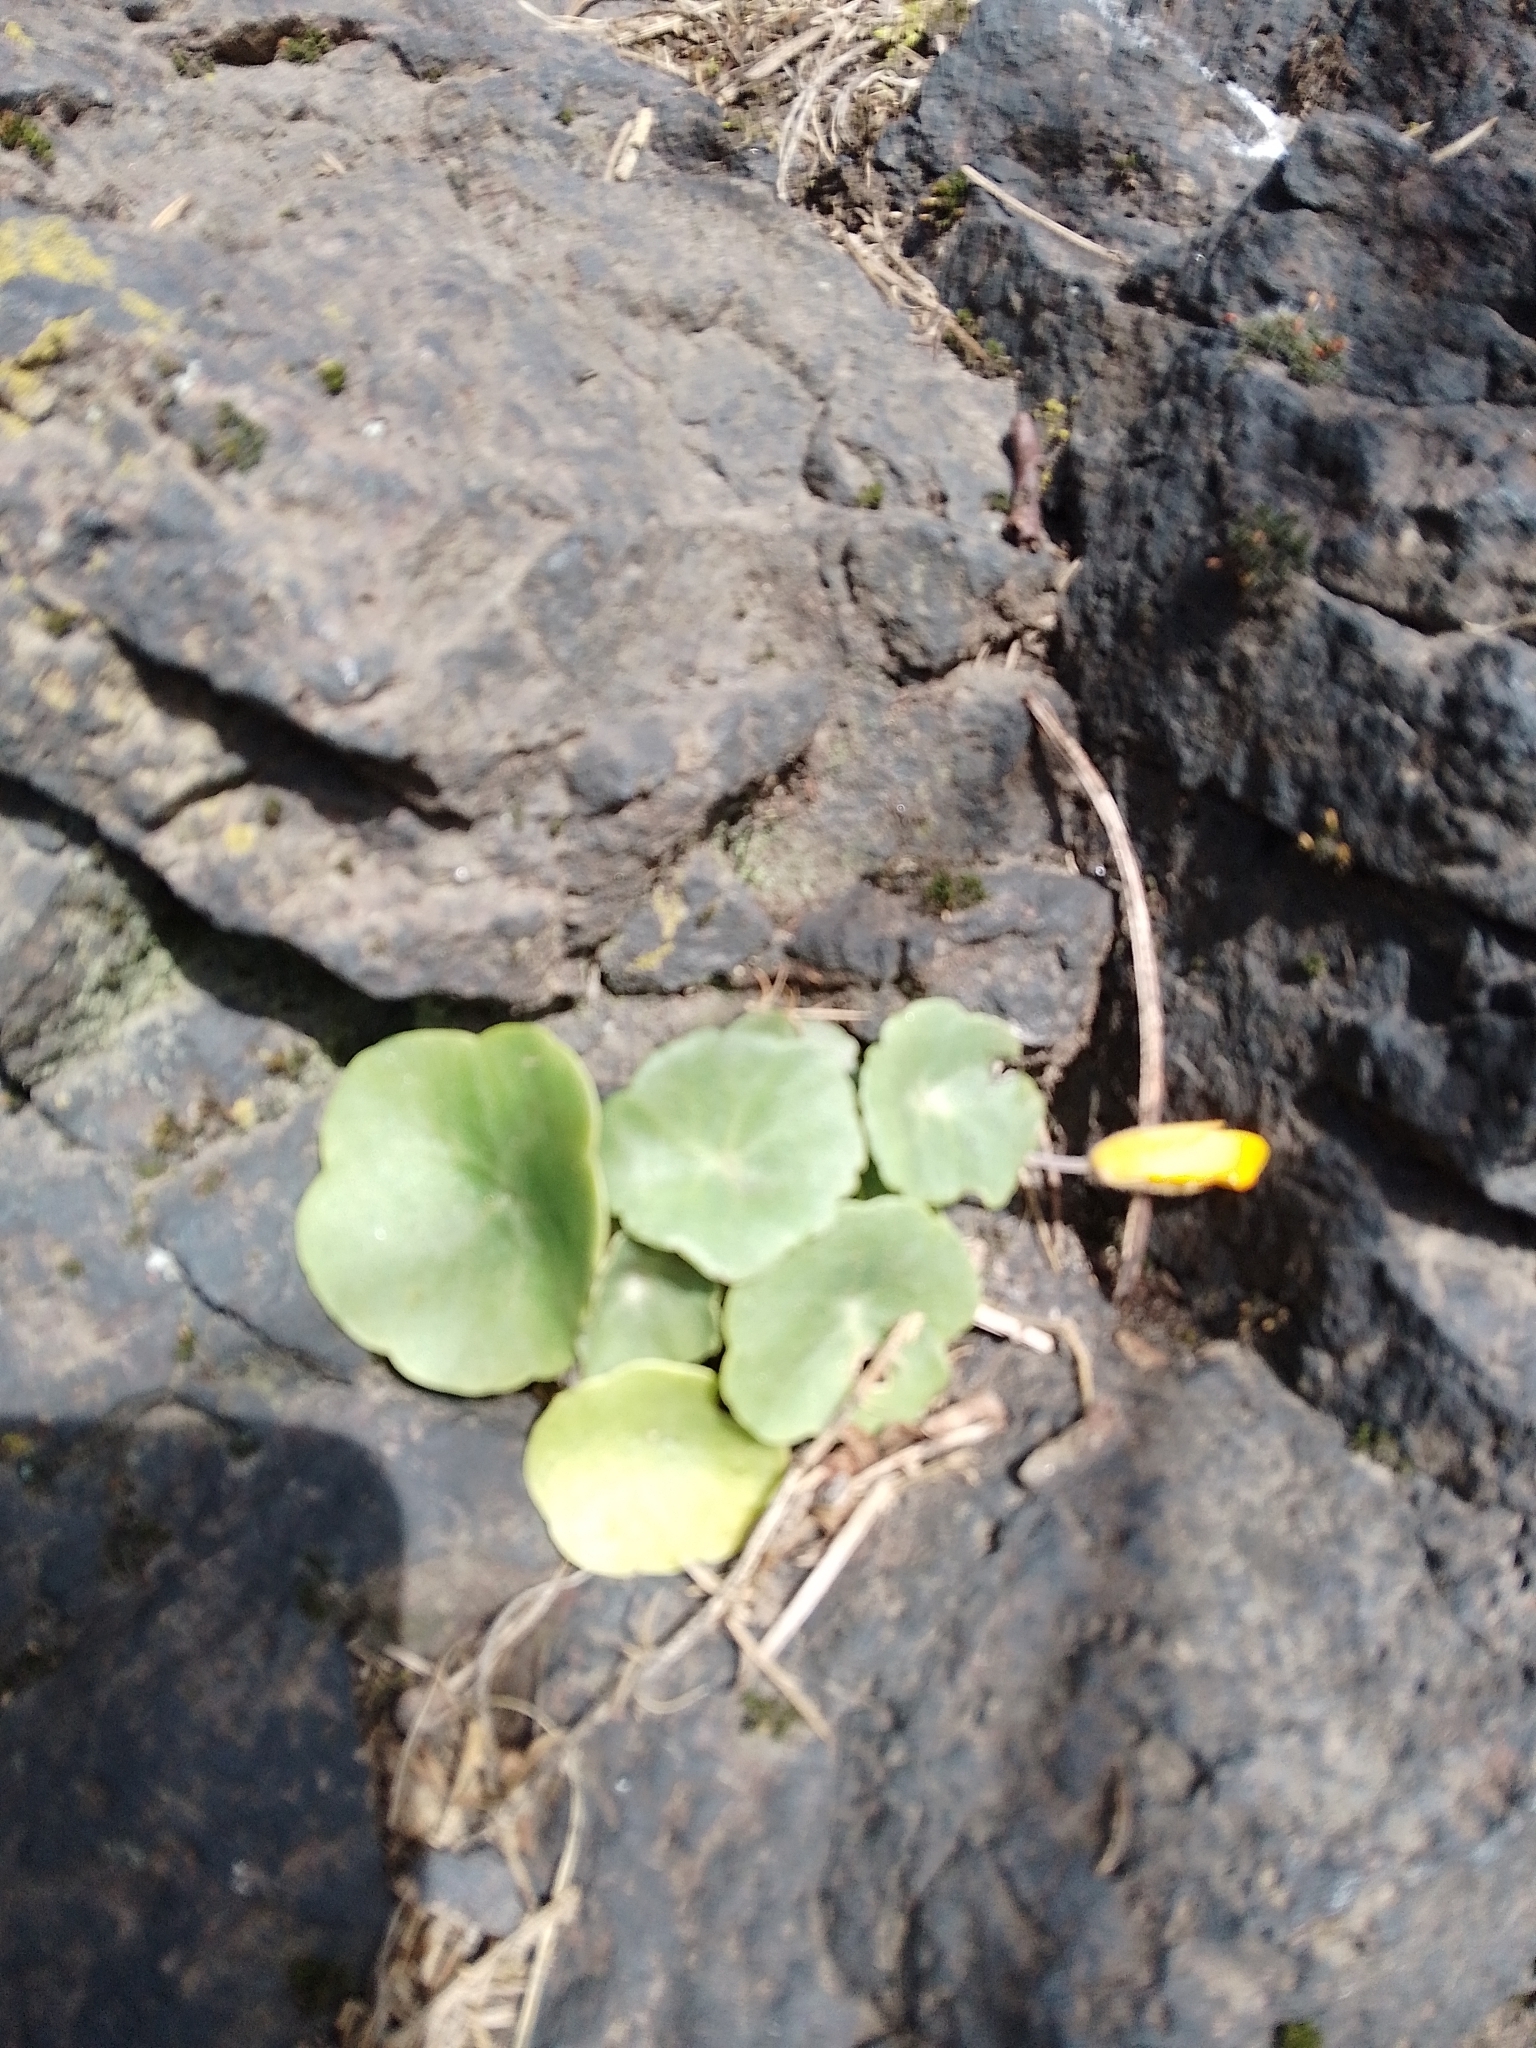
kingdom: Plantae
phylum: Tracheophyta
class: Magnoliopsida
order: Saxifragales
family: Crassulaceae
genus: Umbilicus
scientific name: Umbilicus rupestris
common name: Navelwort
